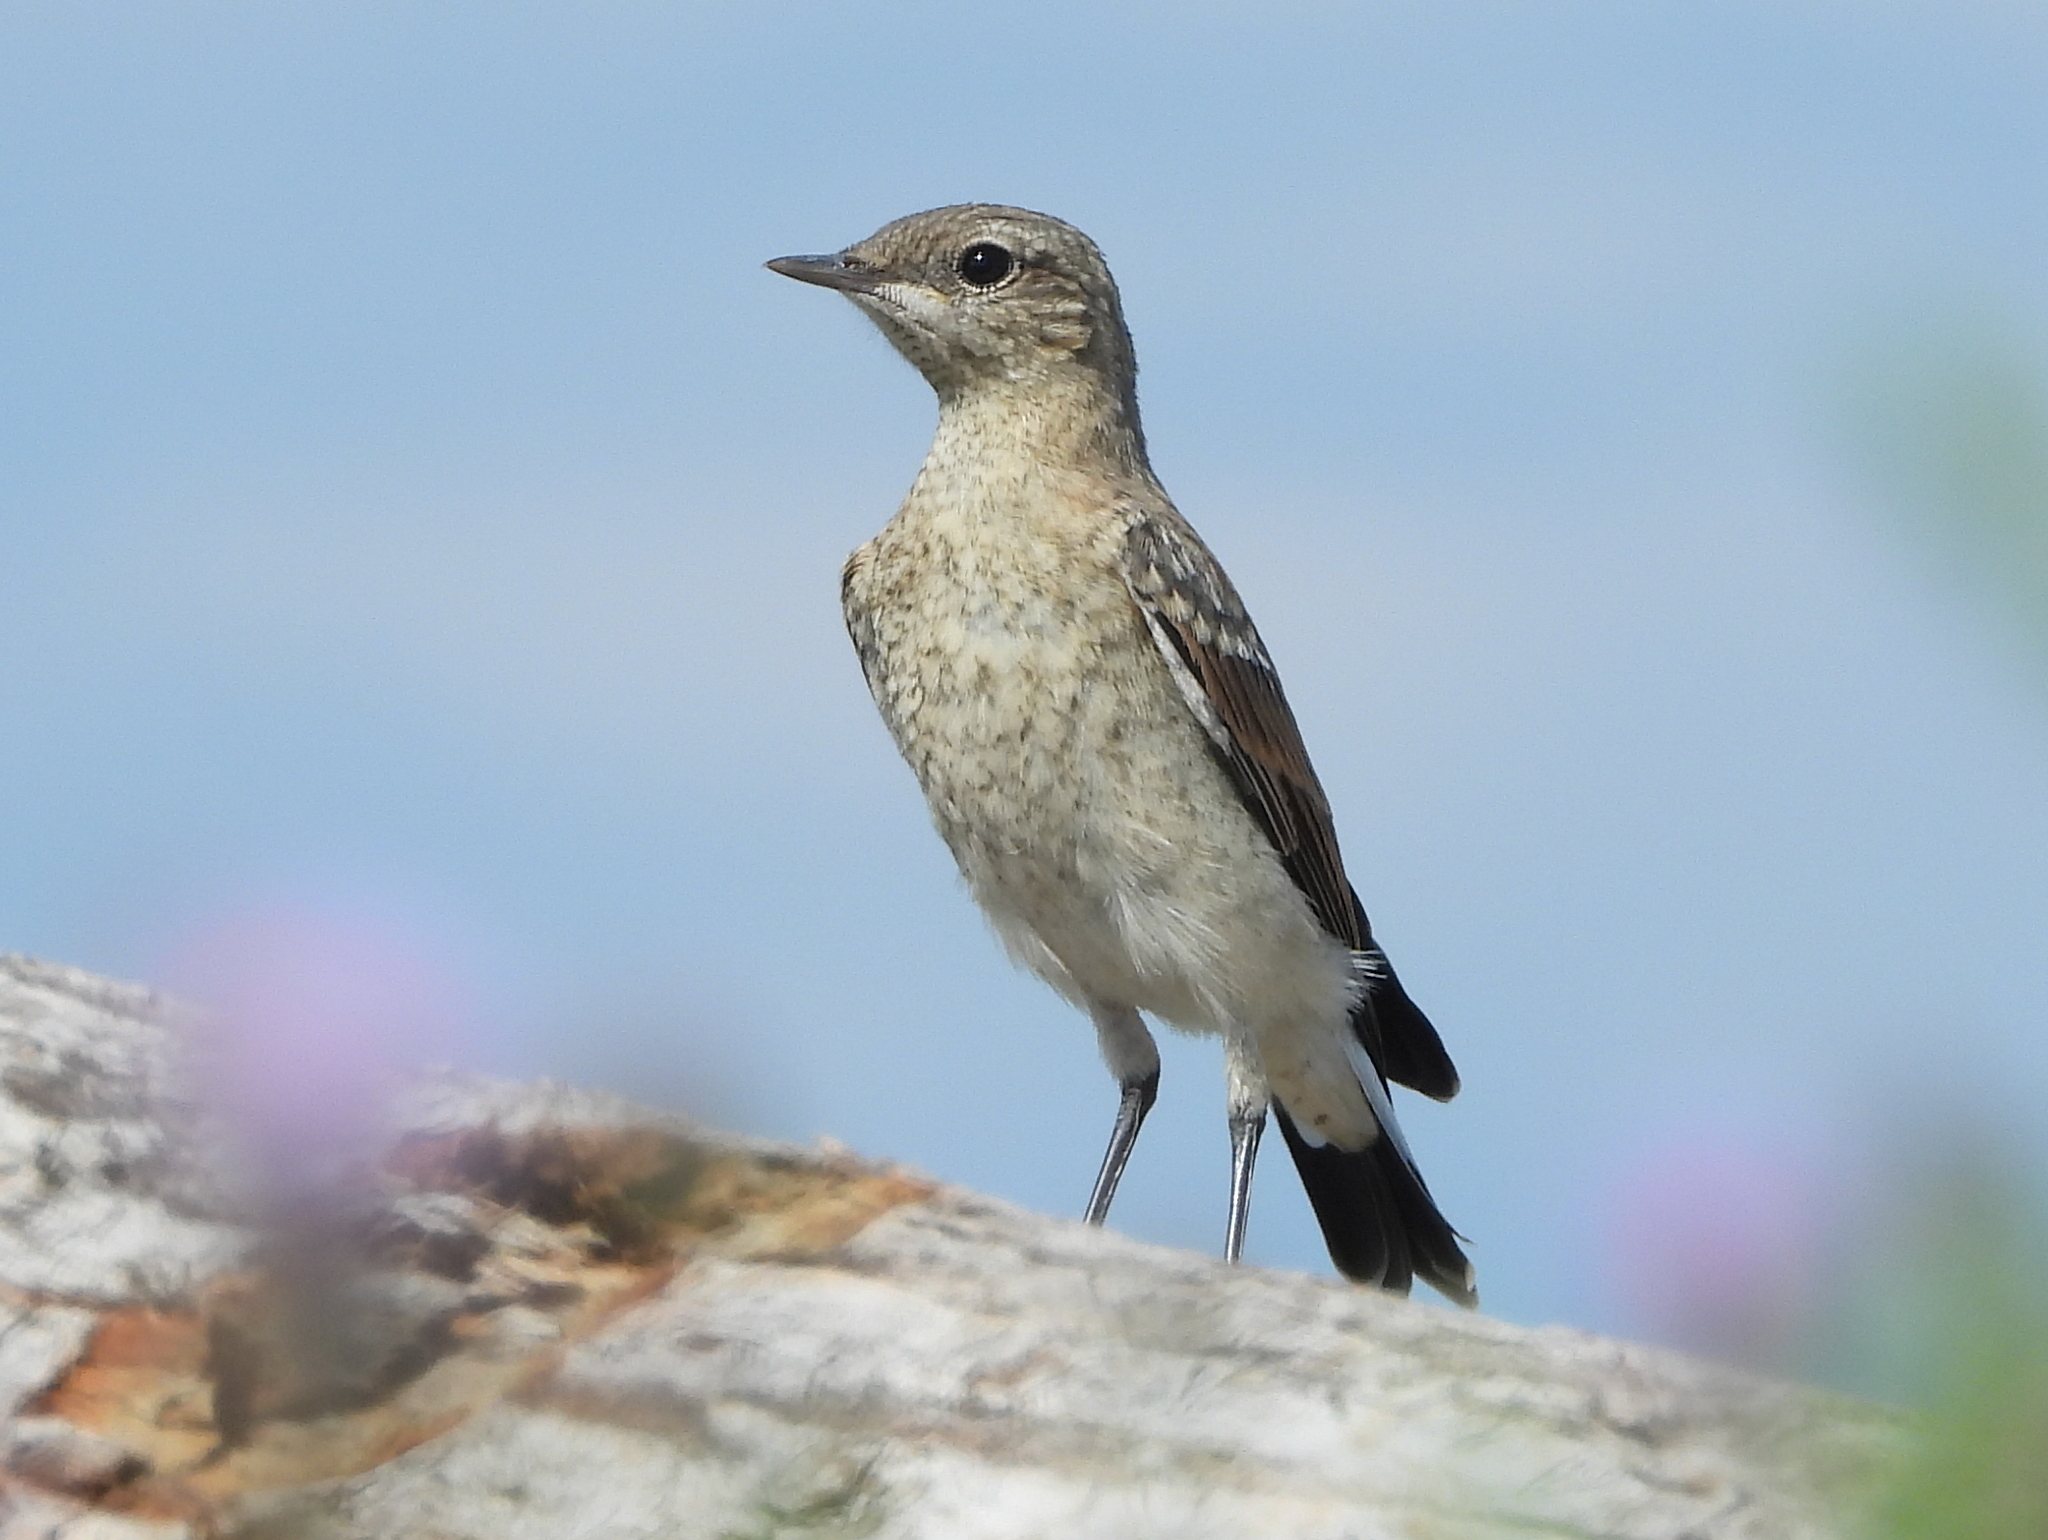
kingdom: Animalia
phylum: Chordata
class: Aves
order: Passeriformes
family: Muscicapidae
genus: Oenanthe
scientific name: Oenanthe oenanthe
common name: Northern wheatear
